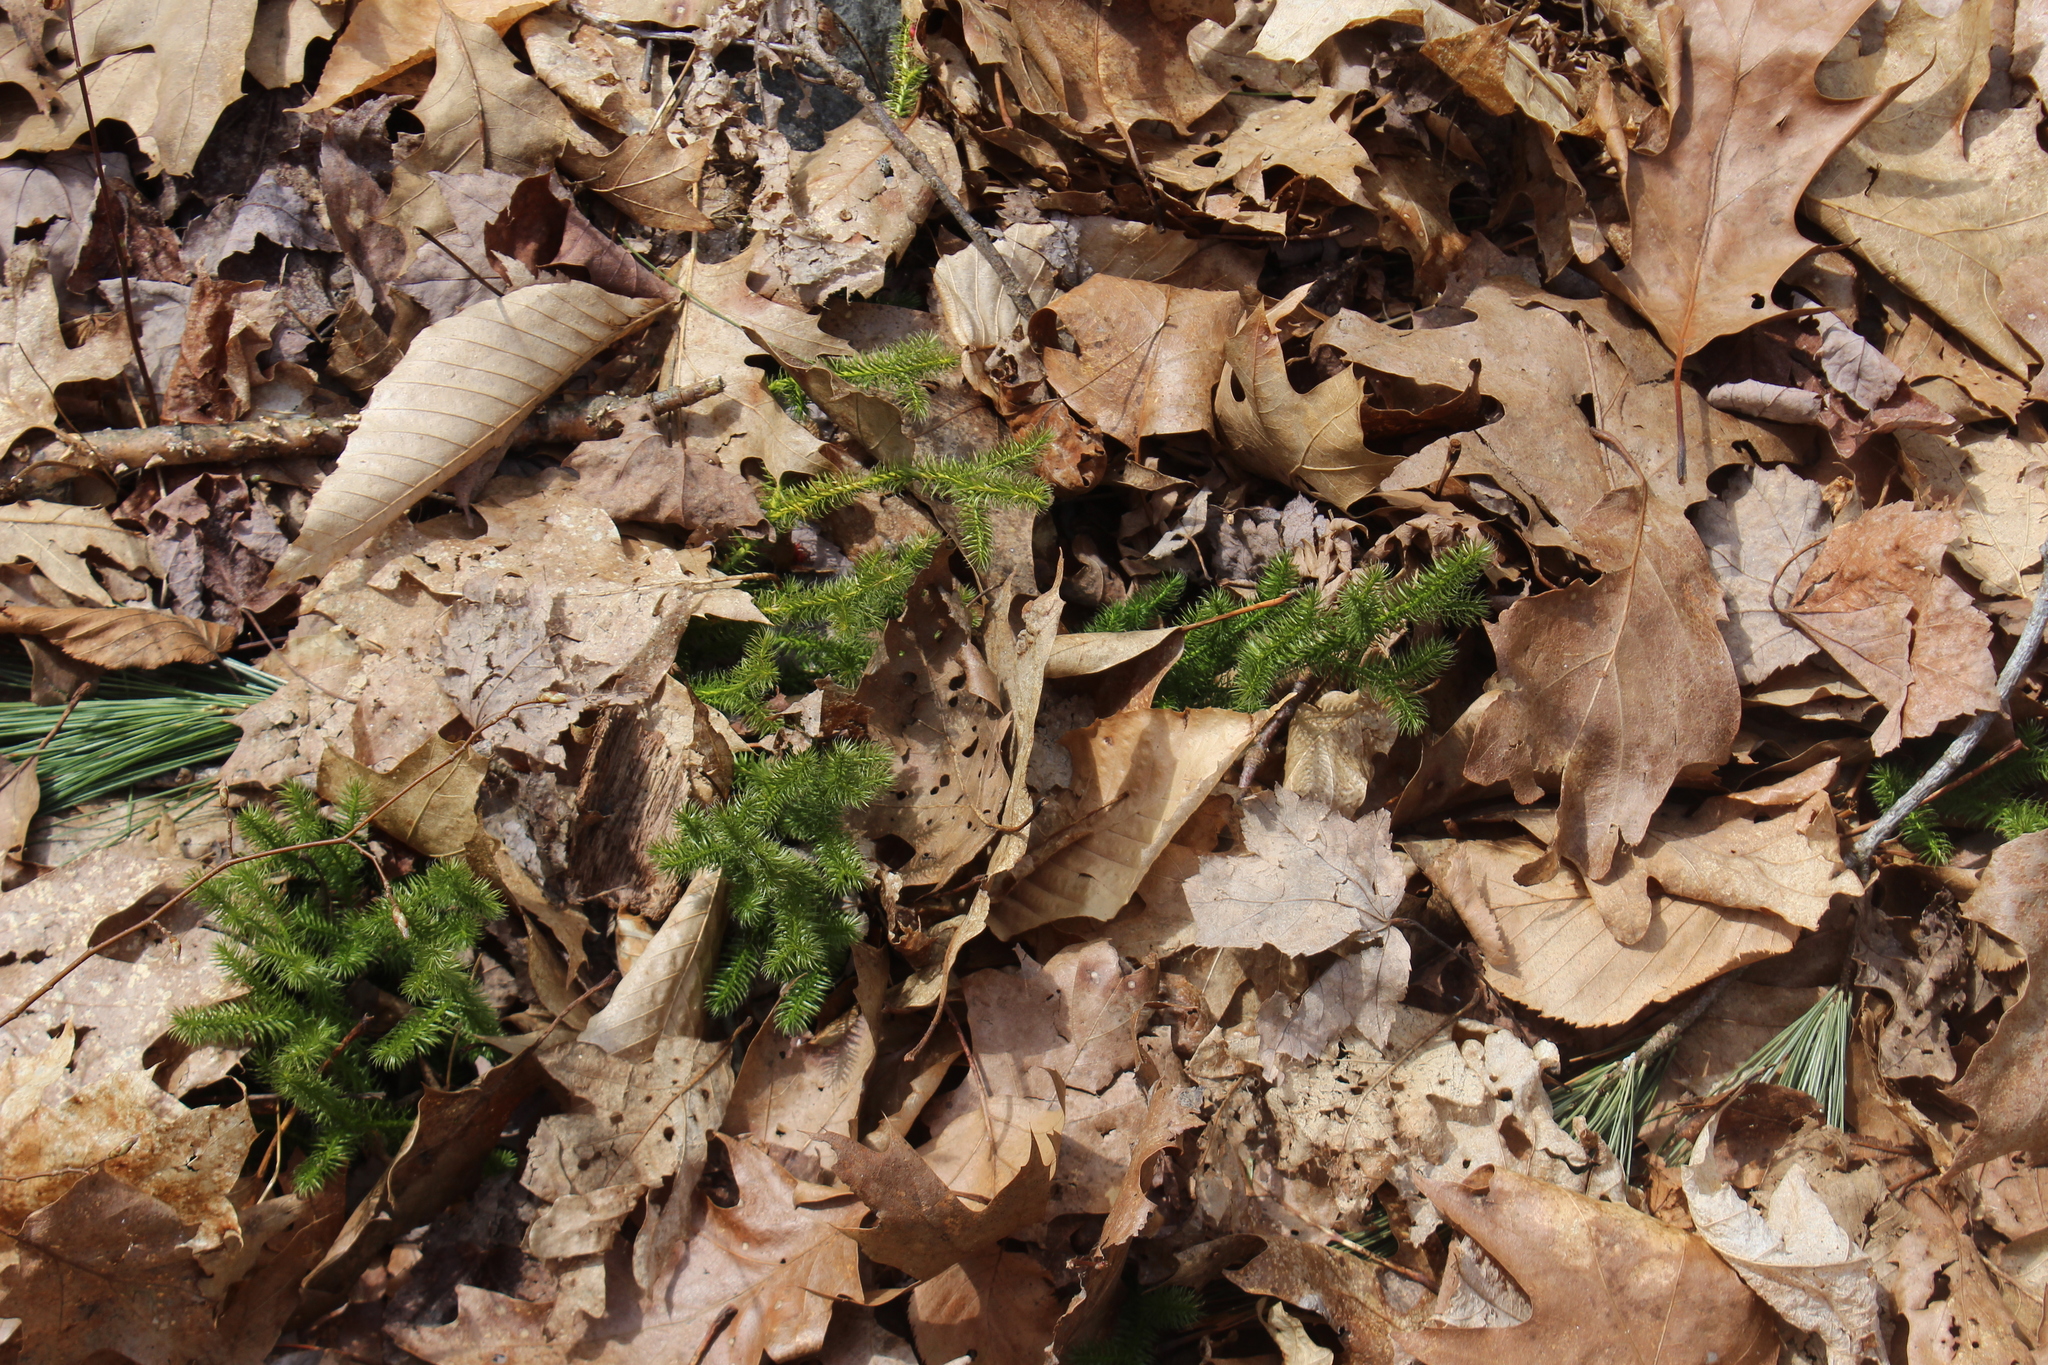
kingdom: Plantae
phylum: Tracheophyta
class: Lycopodiopsida
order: Lycopodiales
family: Lycopodiaceae
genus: Lycopodium
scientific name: Lycopodium clavatum
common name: Stag's-horn clubmoss
